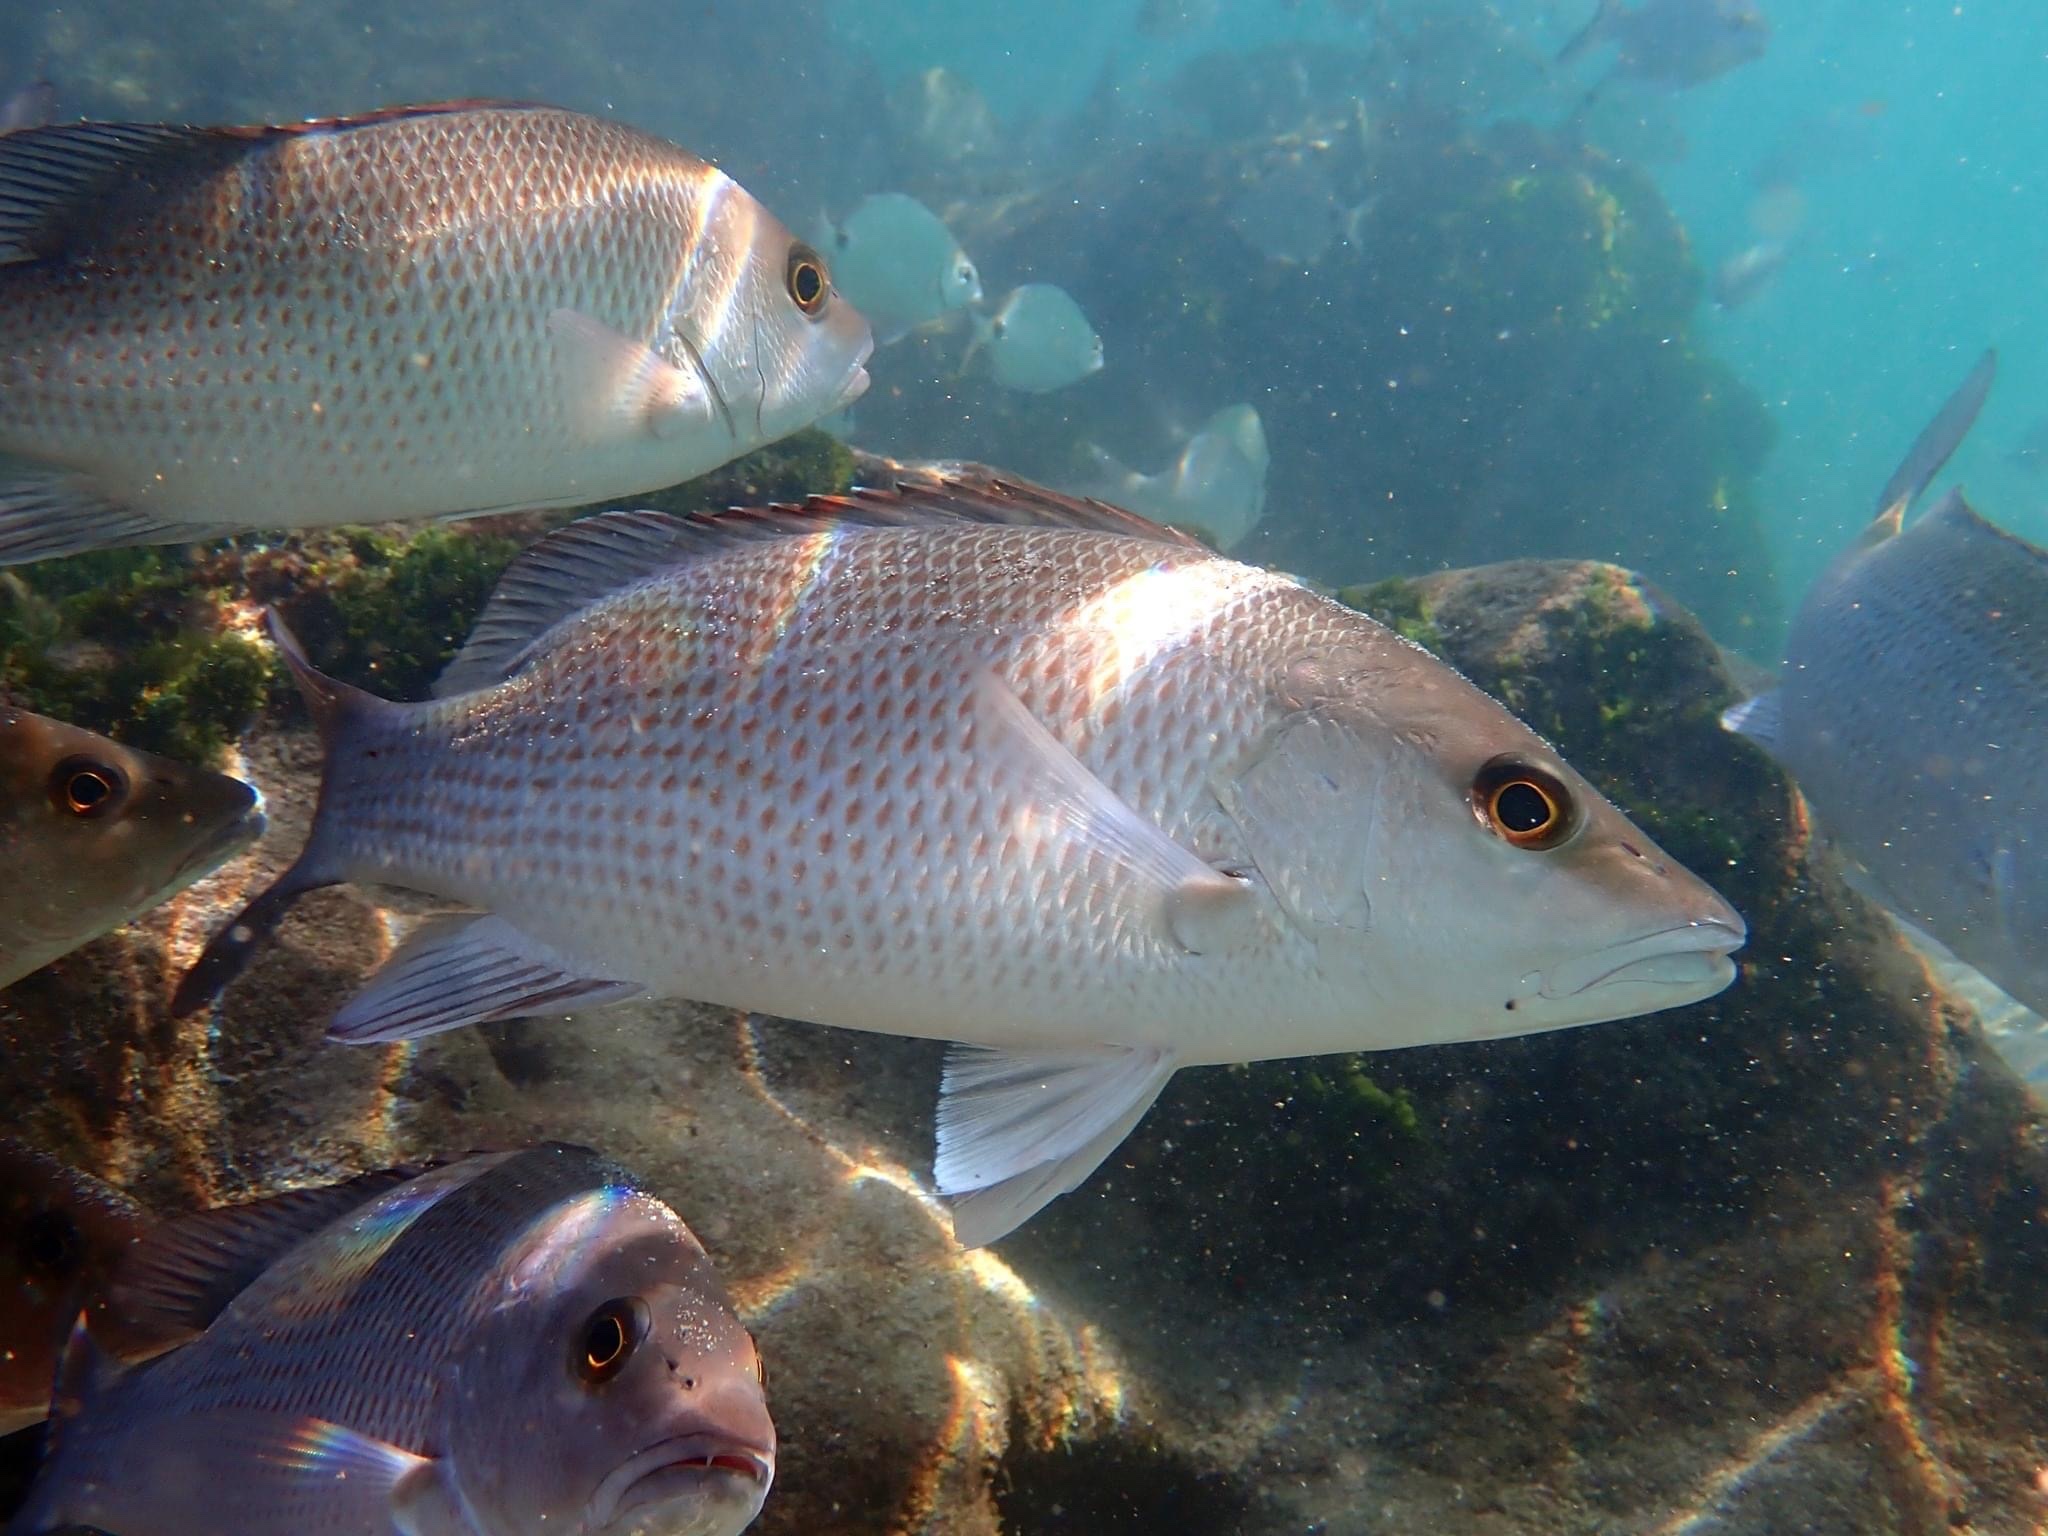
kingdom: Animalia
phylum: Chordata
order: Perciformes
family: Lutjanidae
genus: Lutjanus
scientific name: Lutjanus griseus
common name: Gray snapper
